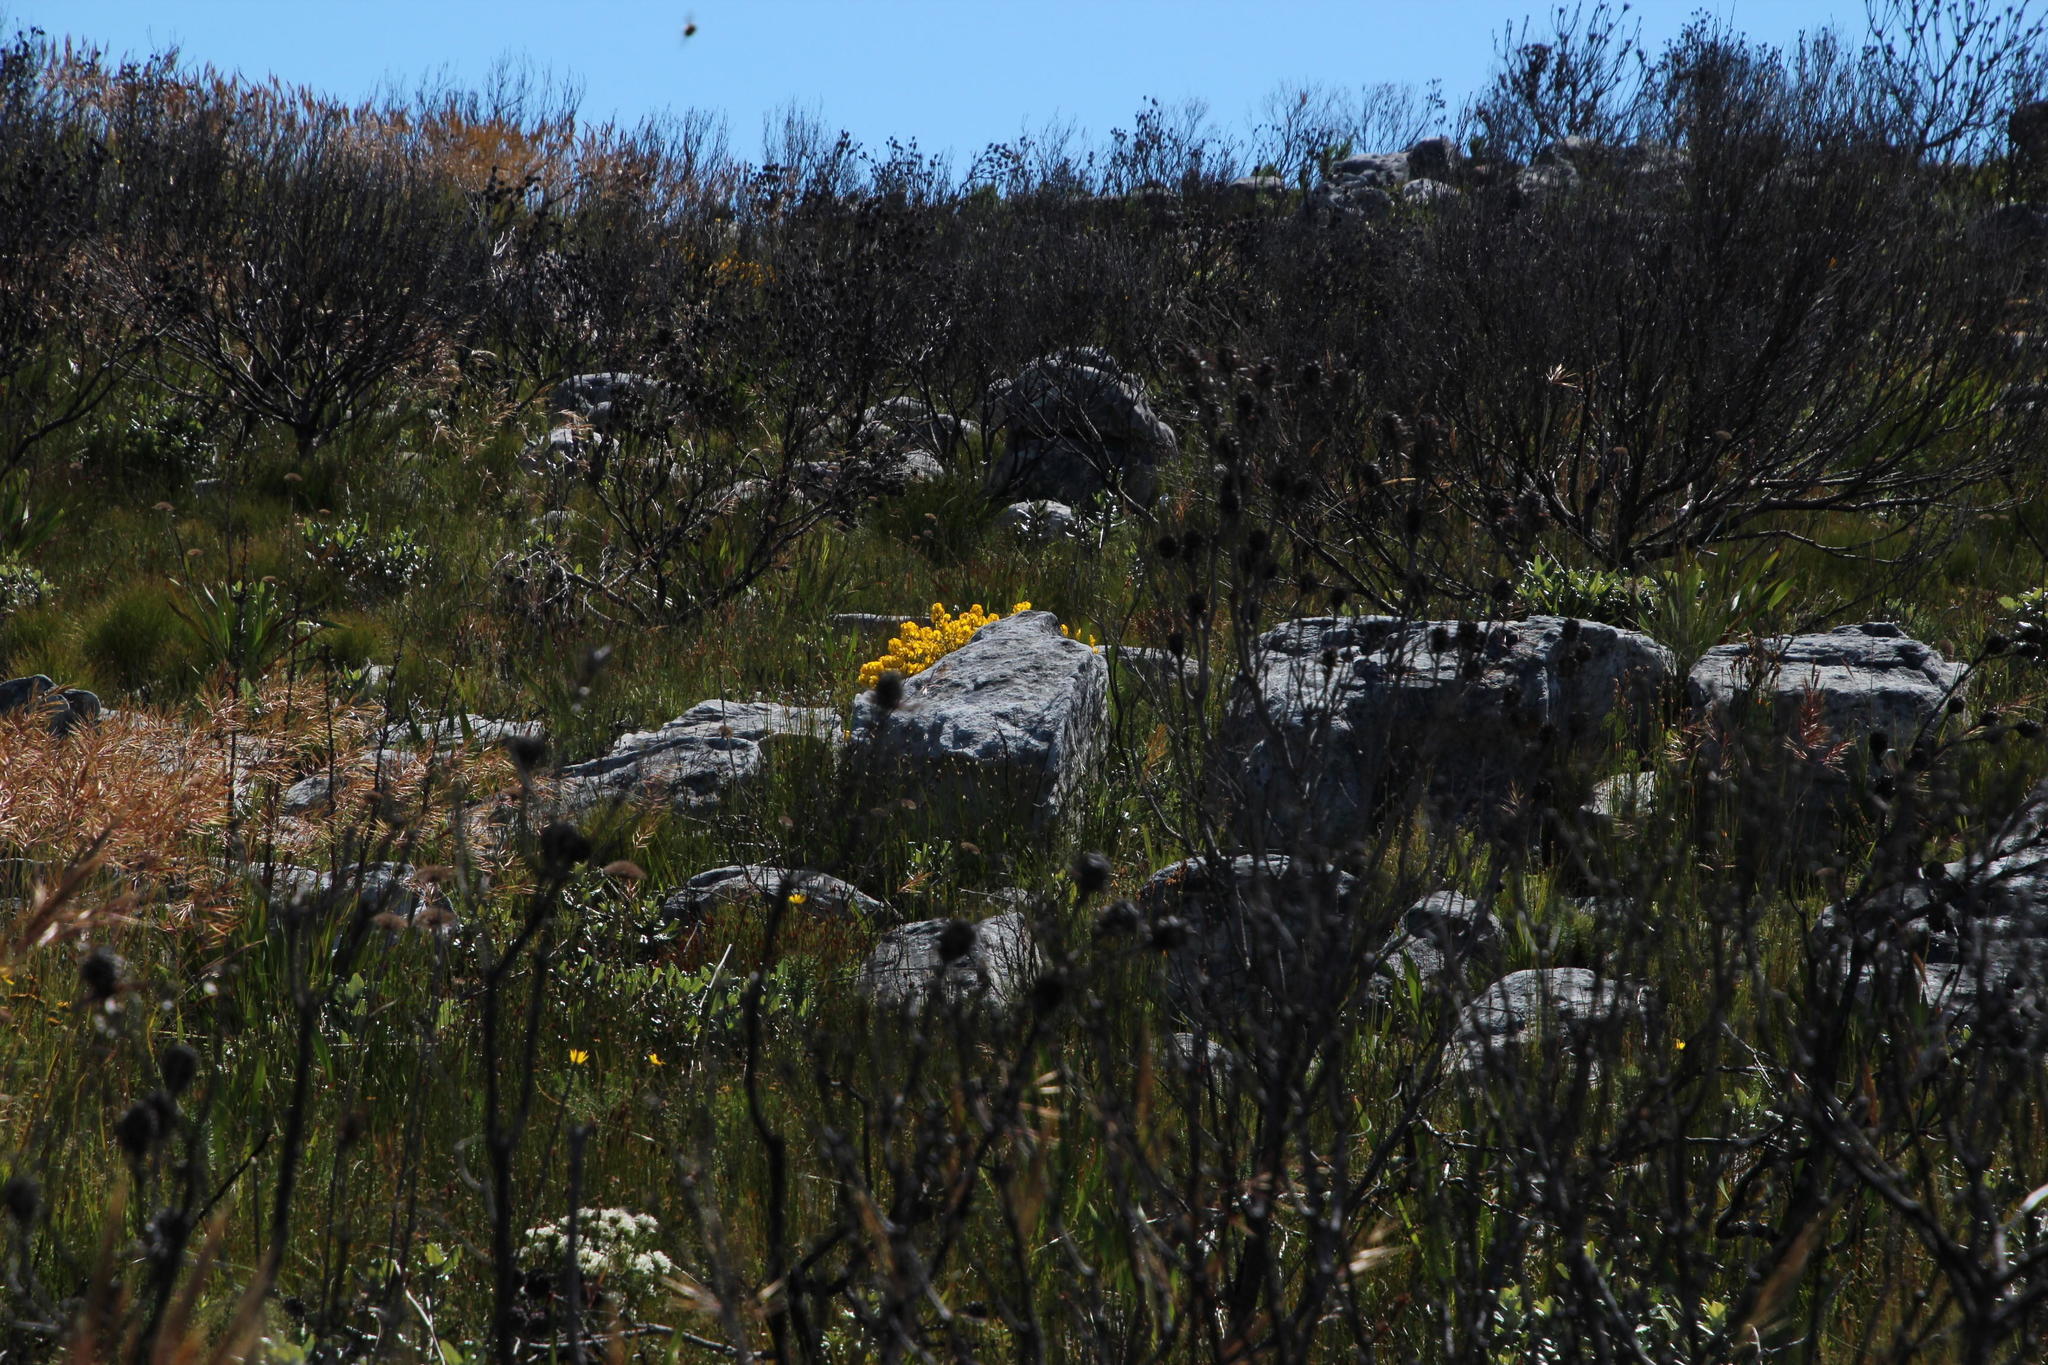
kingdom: Plantae
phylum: Tracheophyta
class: Magnoliopsida
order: Fabales
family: Fabaceae
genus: Cyclopia
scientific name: Cyclopia genistoides
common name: Honeybush tea
